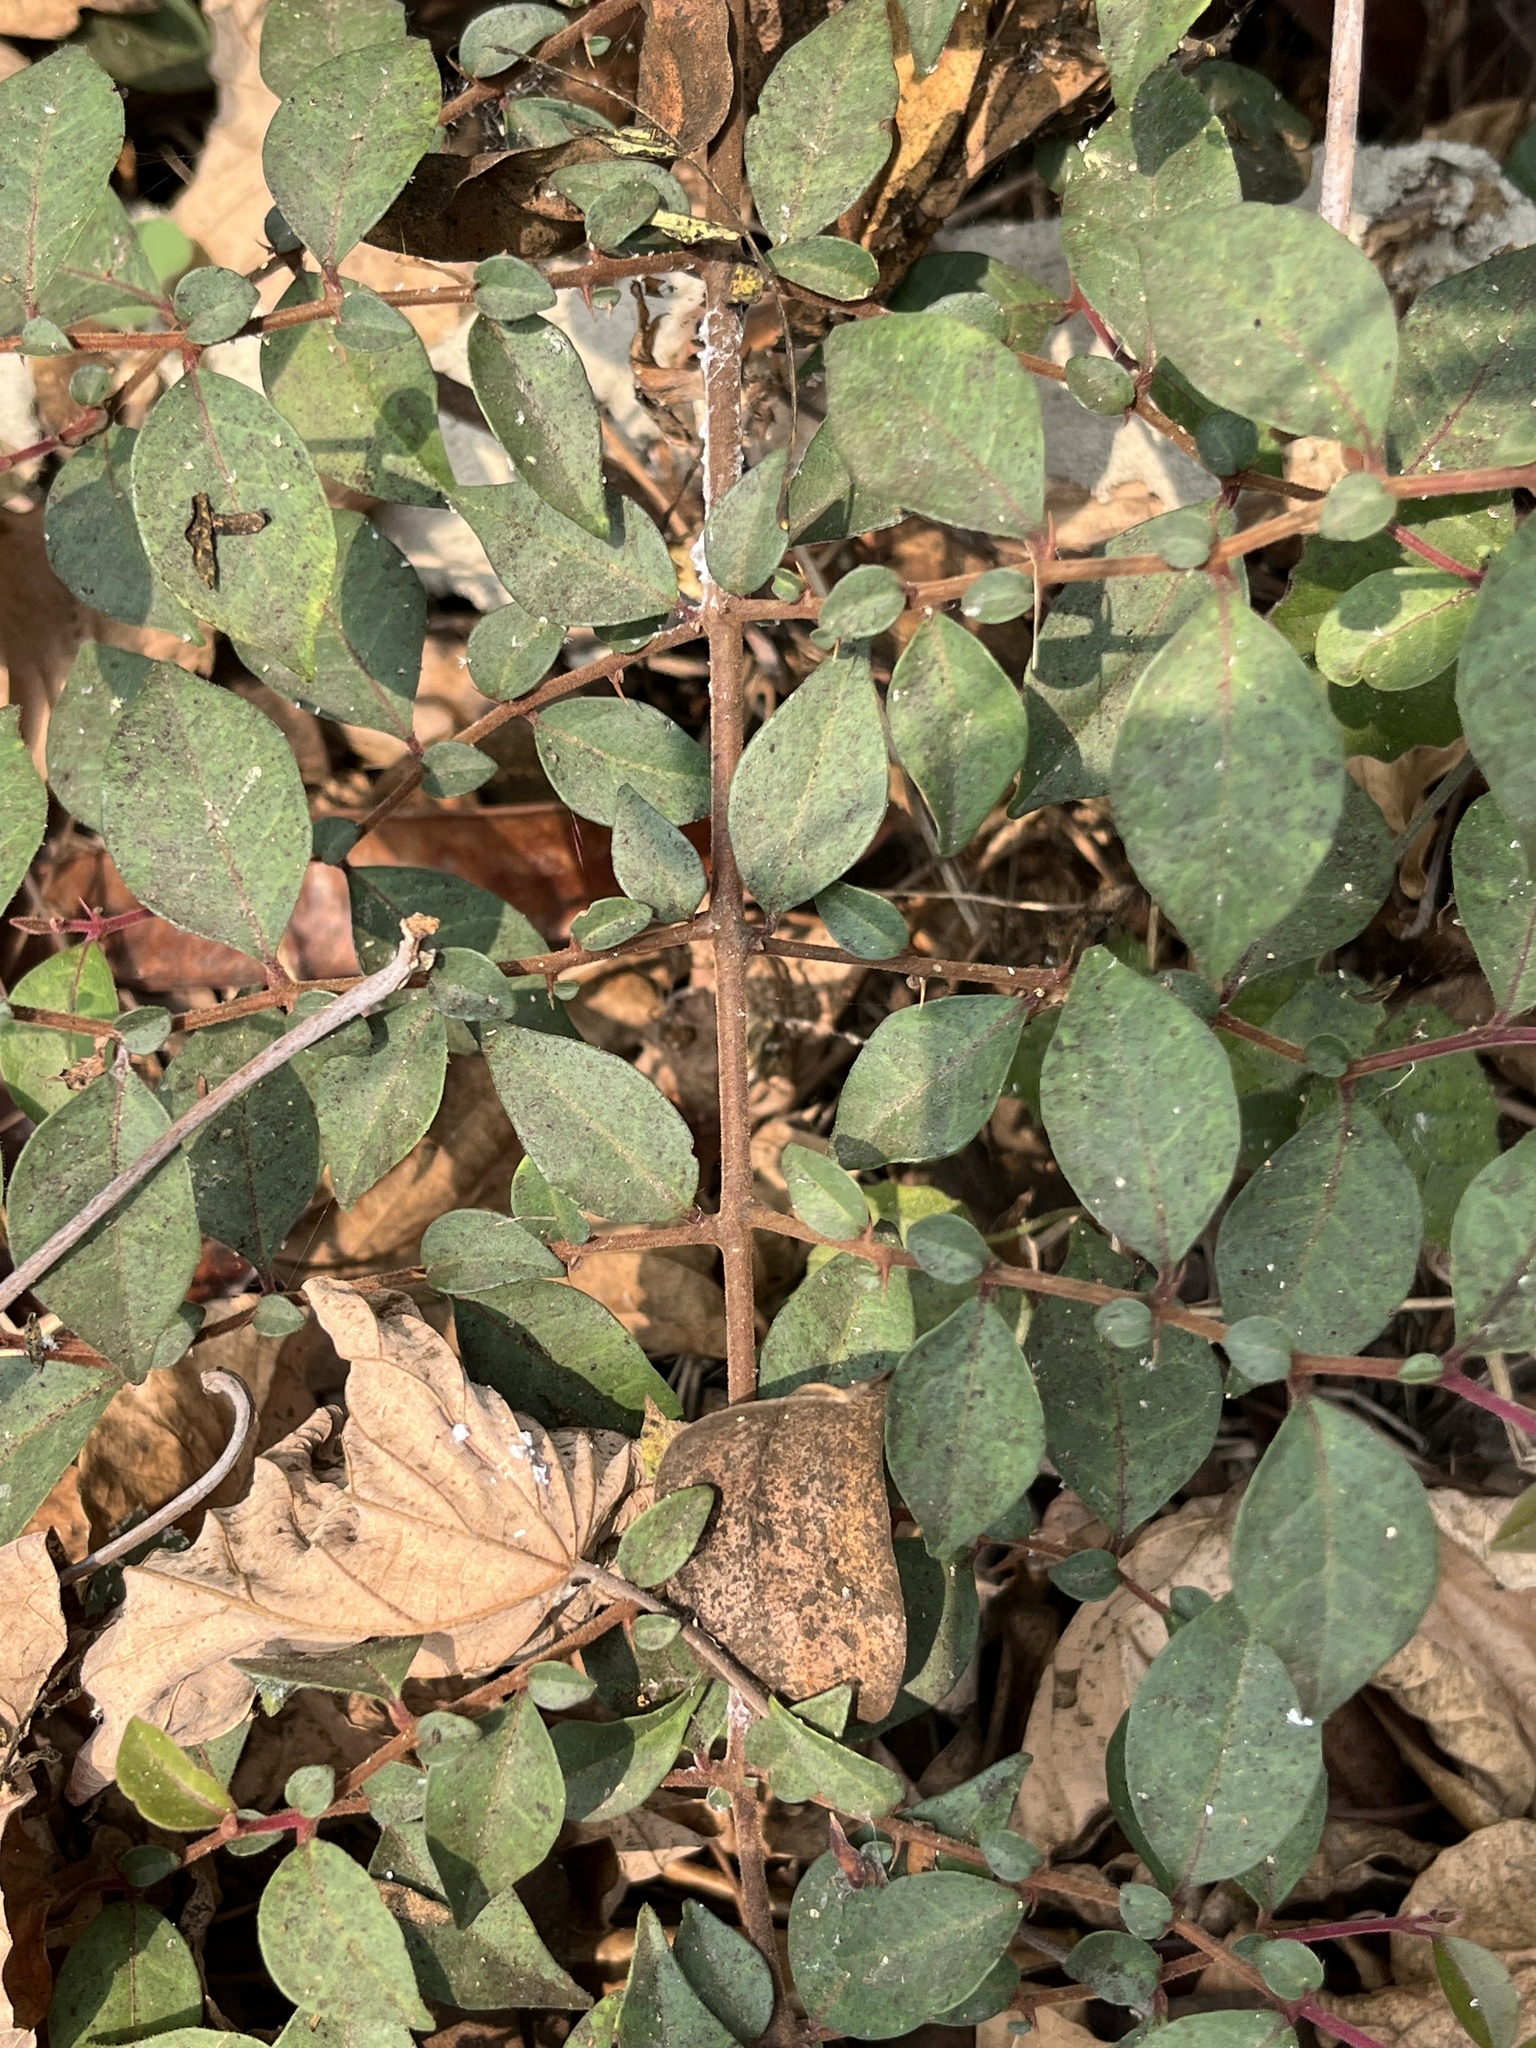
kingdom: Plantae
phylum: Tracheophyta
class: Magnoliopsida
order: Caryophyllales
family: Nyctaginaceae
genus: Pisonia
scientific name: Pisonia aculeata
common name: Cockspur vine
